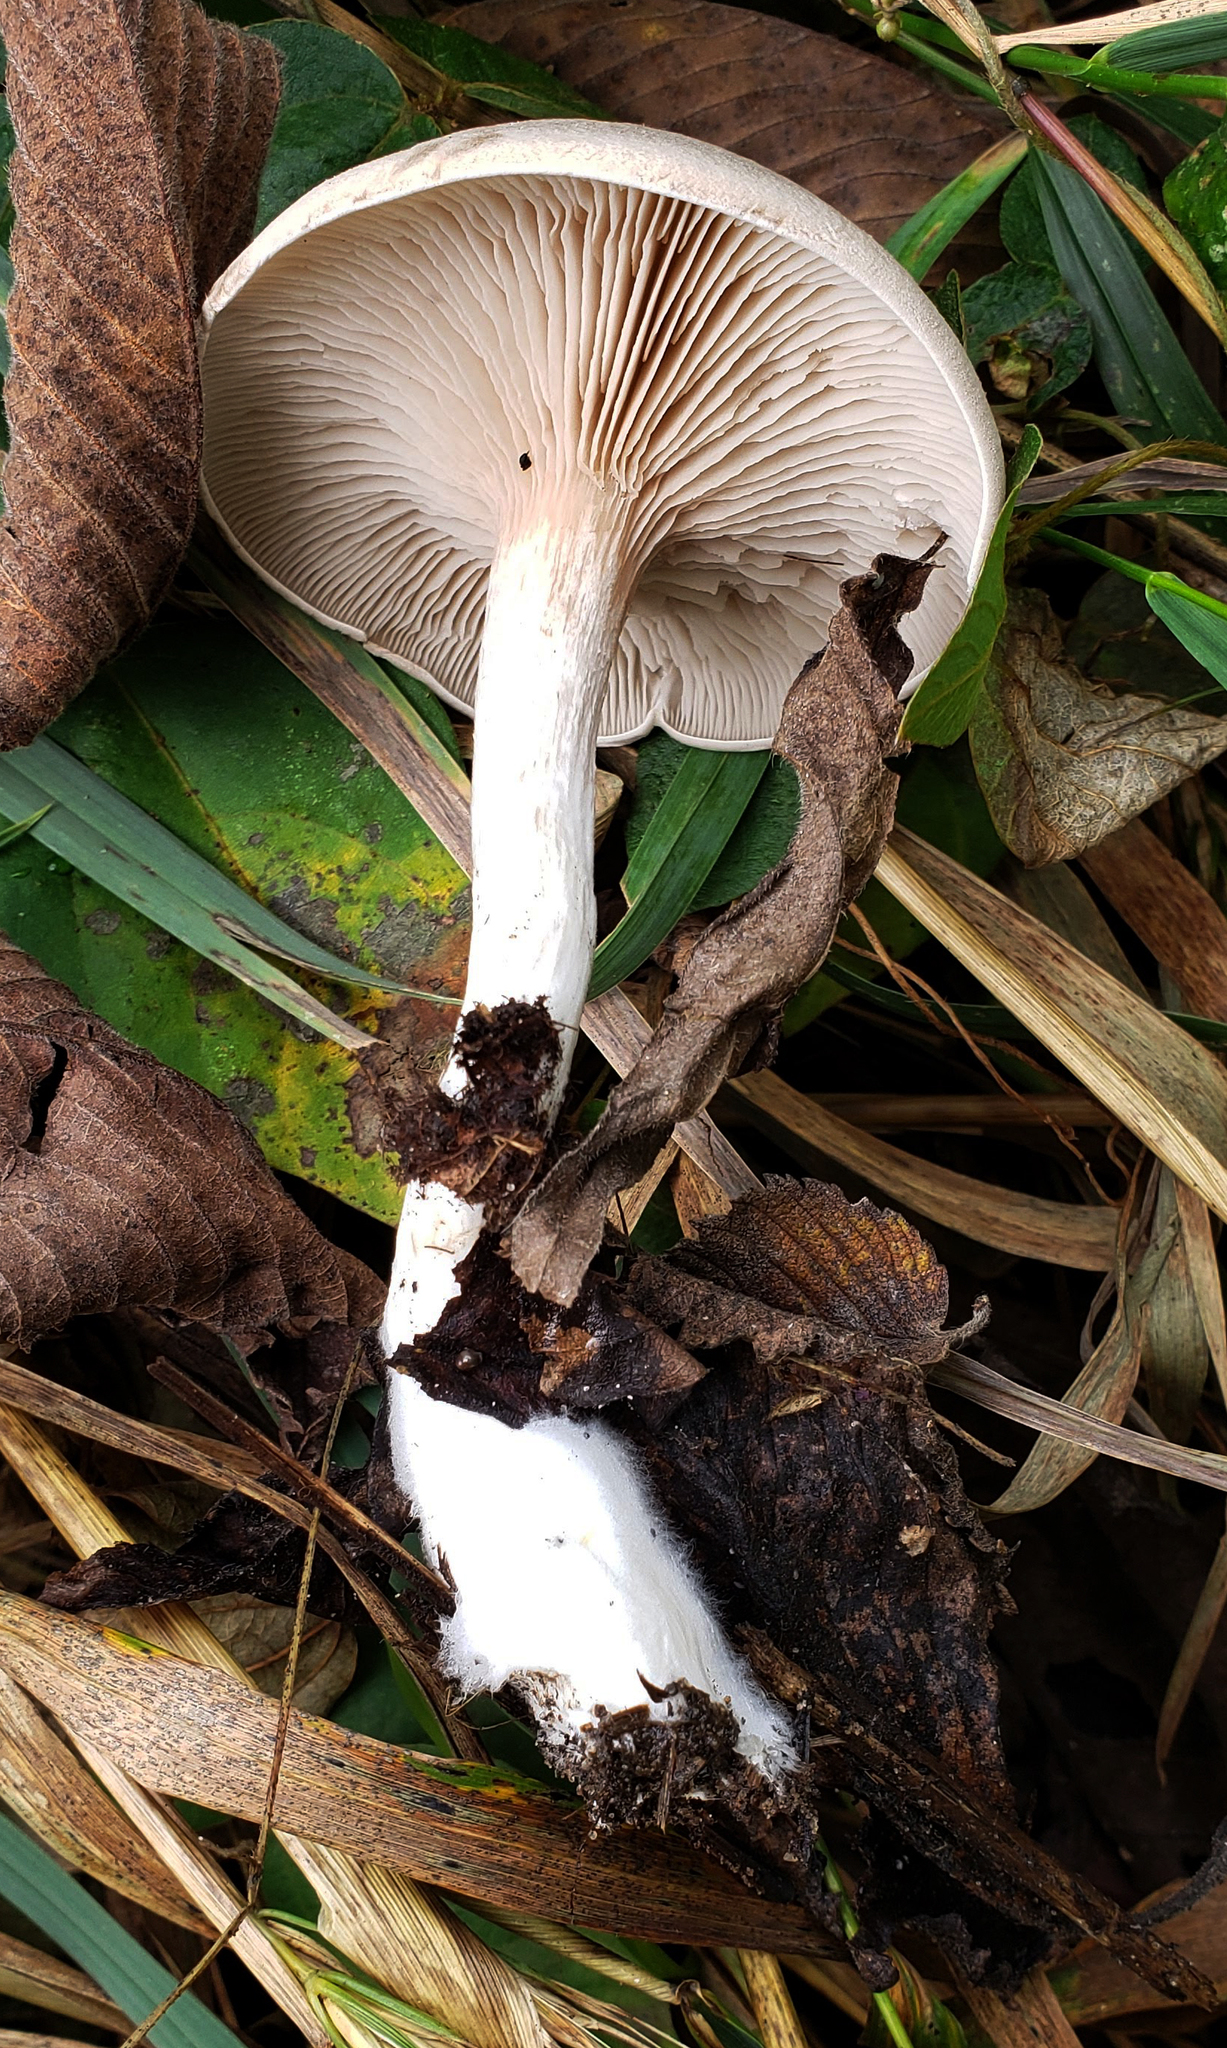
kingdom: Fungi
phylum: Basidiomycota
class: Agaricomycetes
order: Agaricales
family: Entolomataceae
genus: Entoloma
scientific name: Entoloma abortivum
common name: Aborted entoloma
